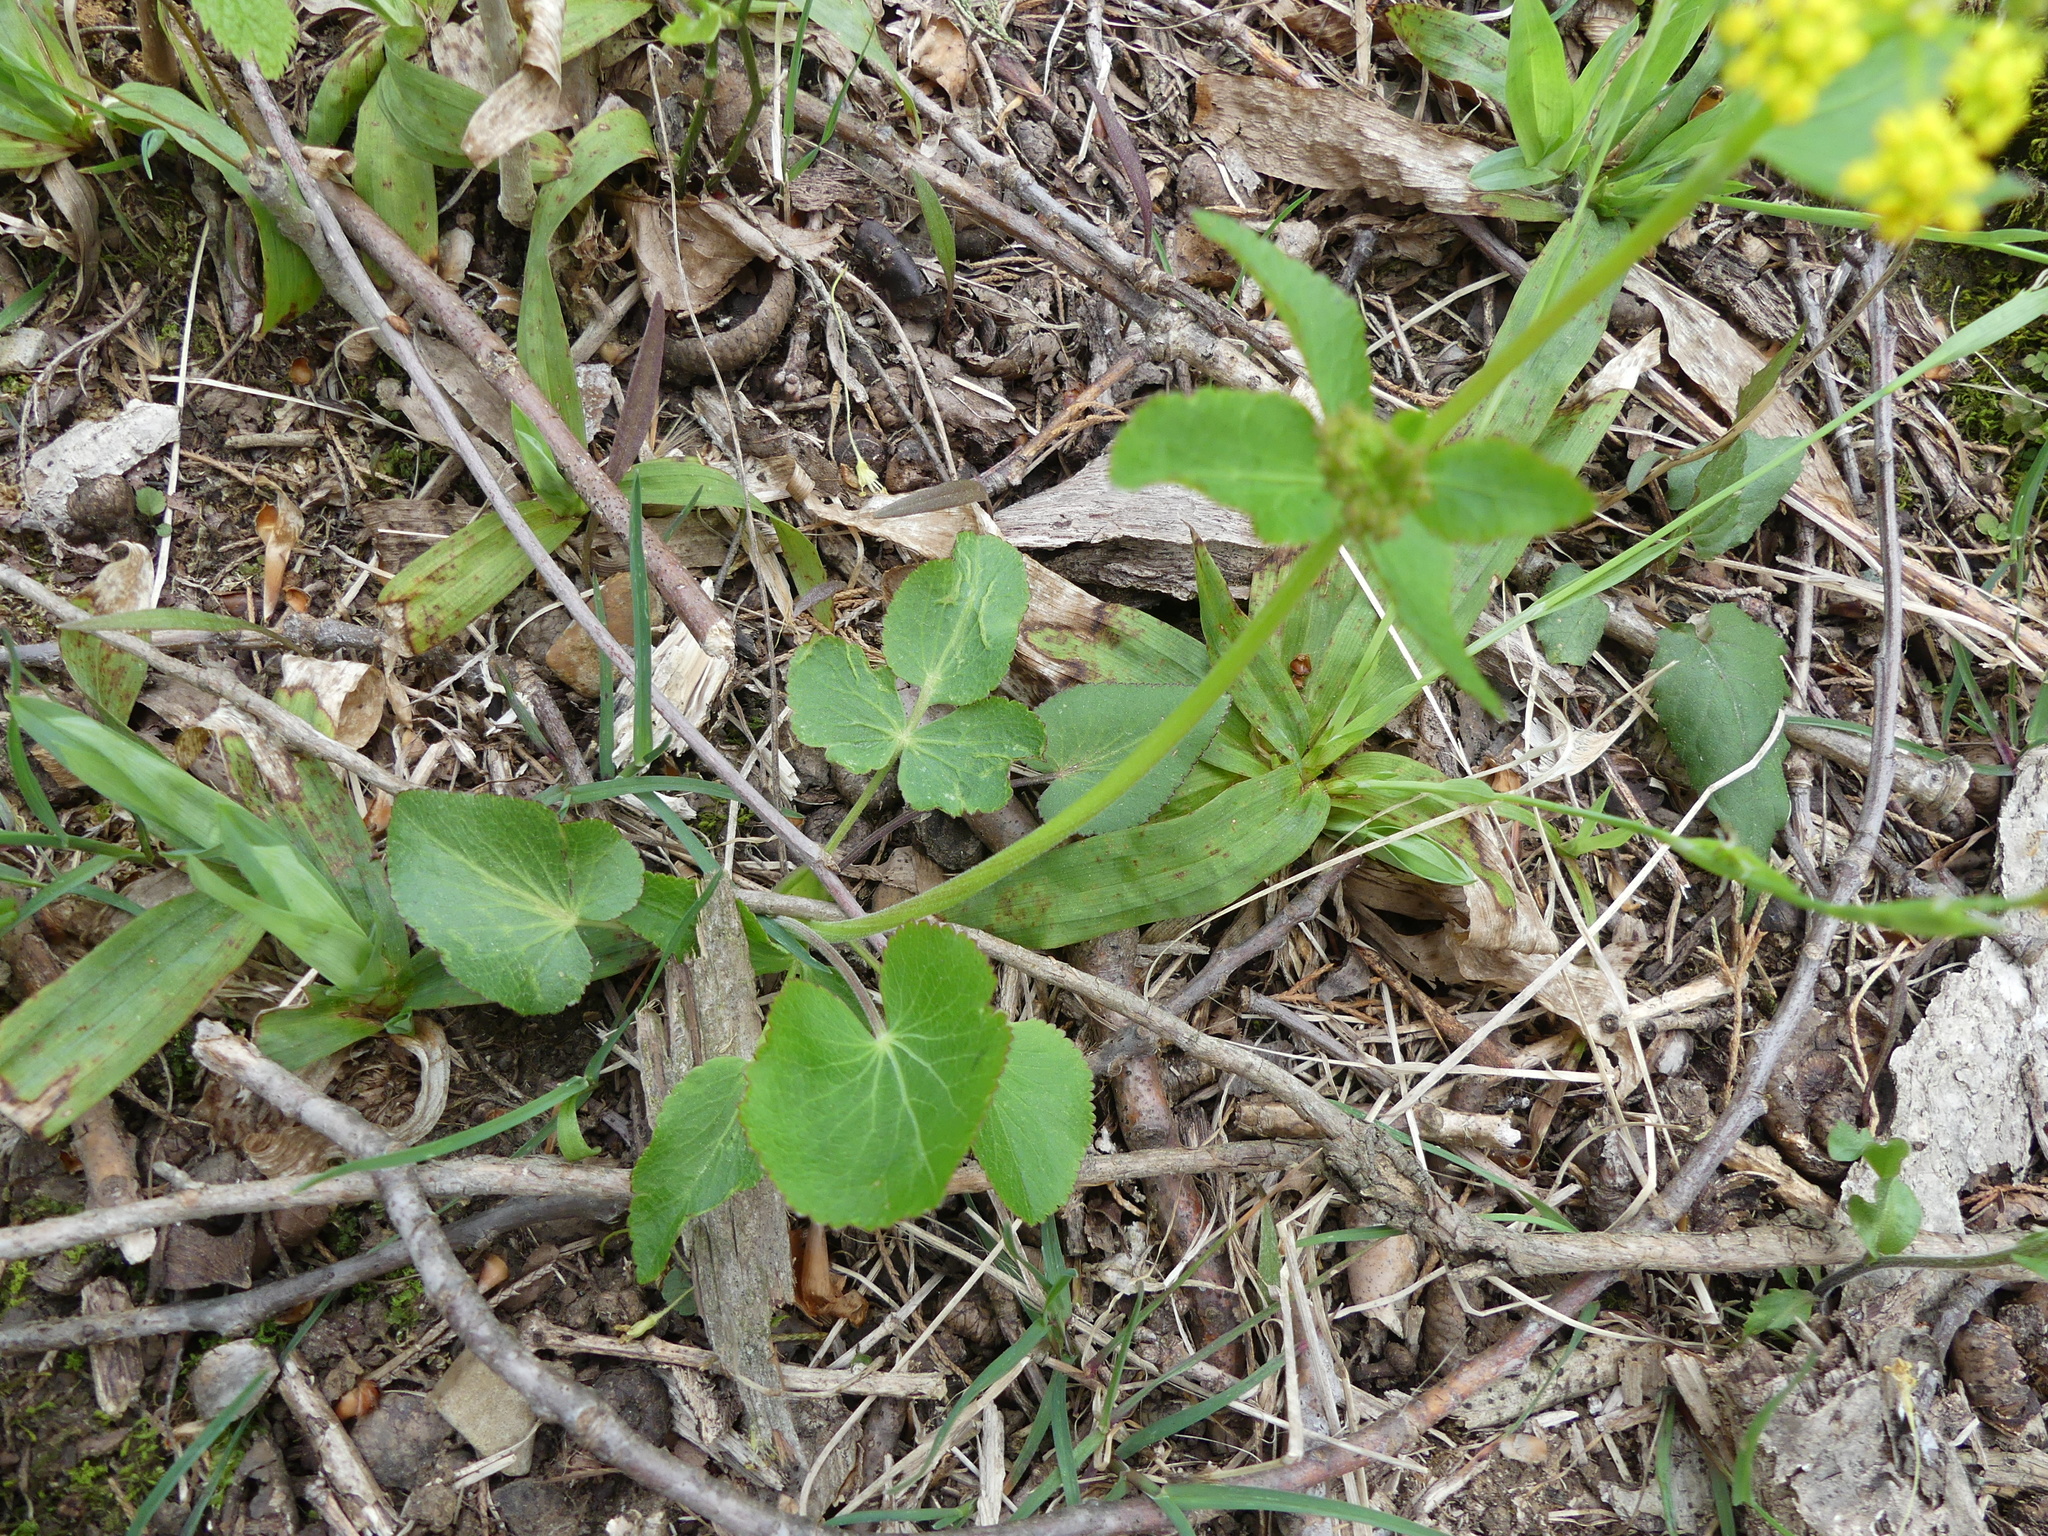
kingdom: Plantae
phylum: Tracheophyta
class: Magnoliopsida
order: Apiales
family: Apiaceae
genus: Zizia
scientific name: Zizia aptera
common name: Heart-leaved alexanders
